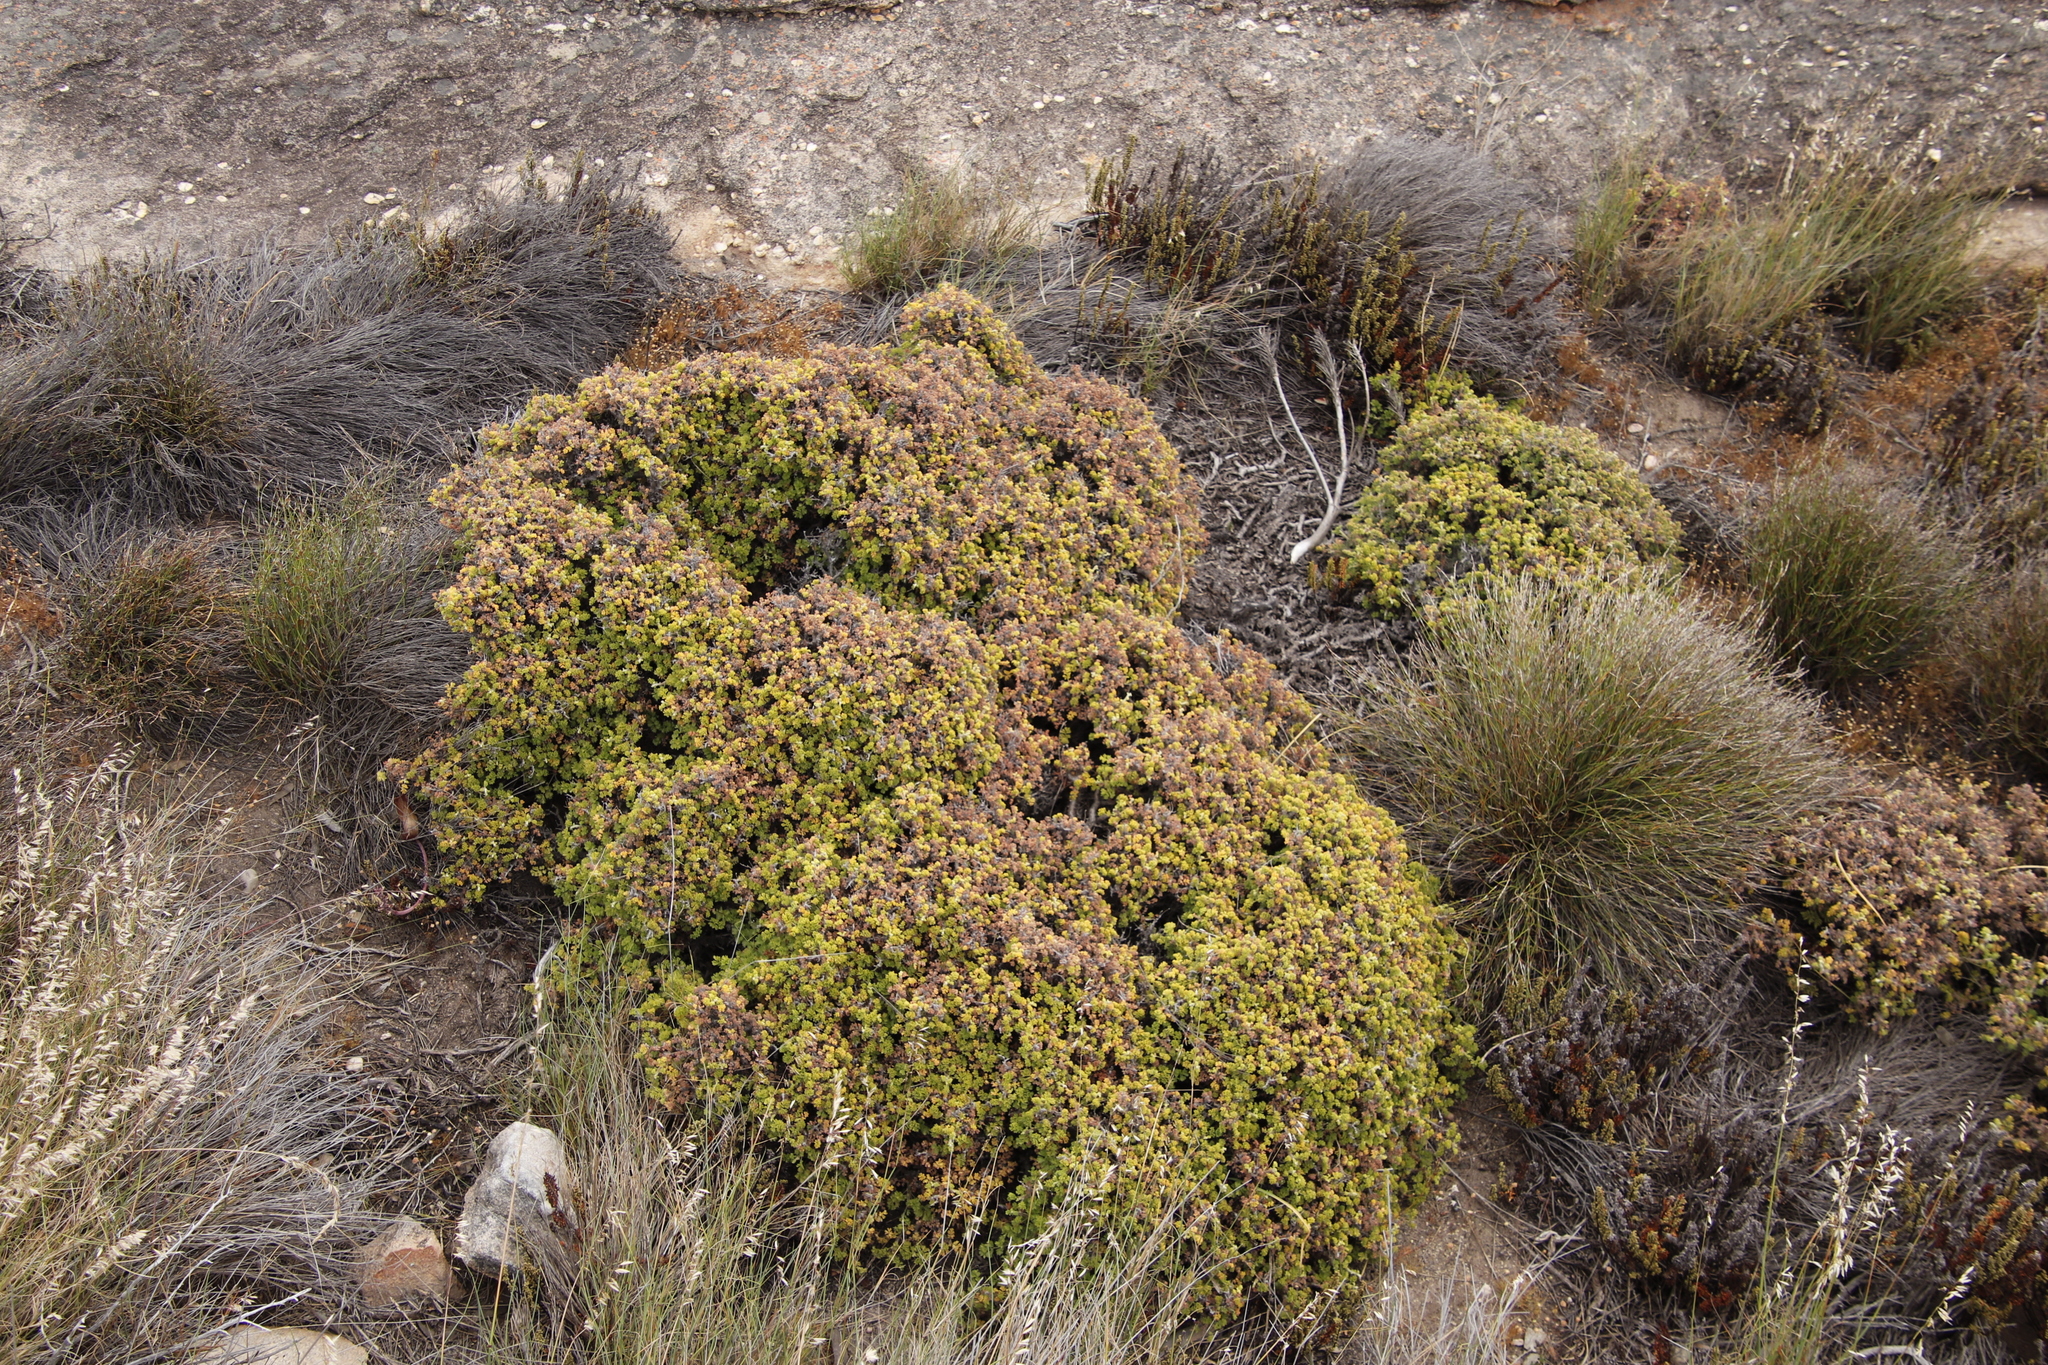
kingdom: Plantae
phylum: Tracheophyta
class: Magnoliopsida
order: Geraniales
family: Geraniaceae
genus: Pelargonium
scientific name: Pelargonium alternans
